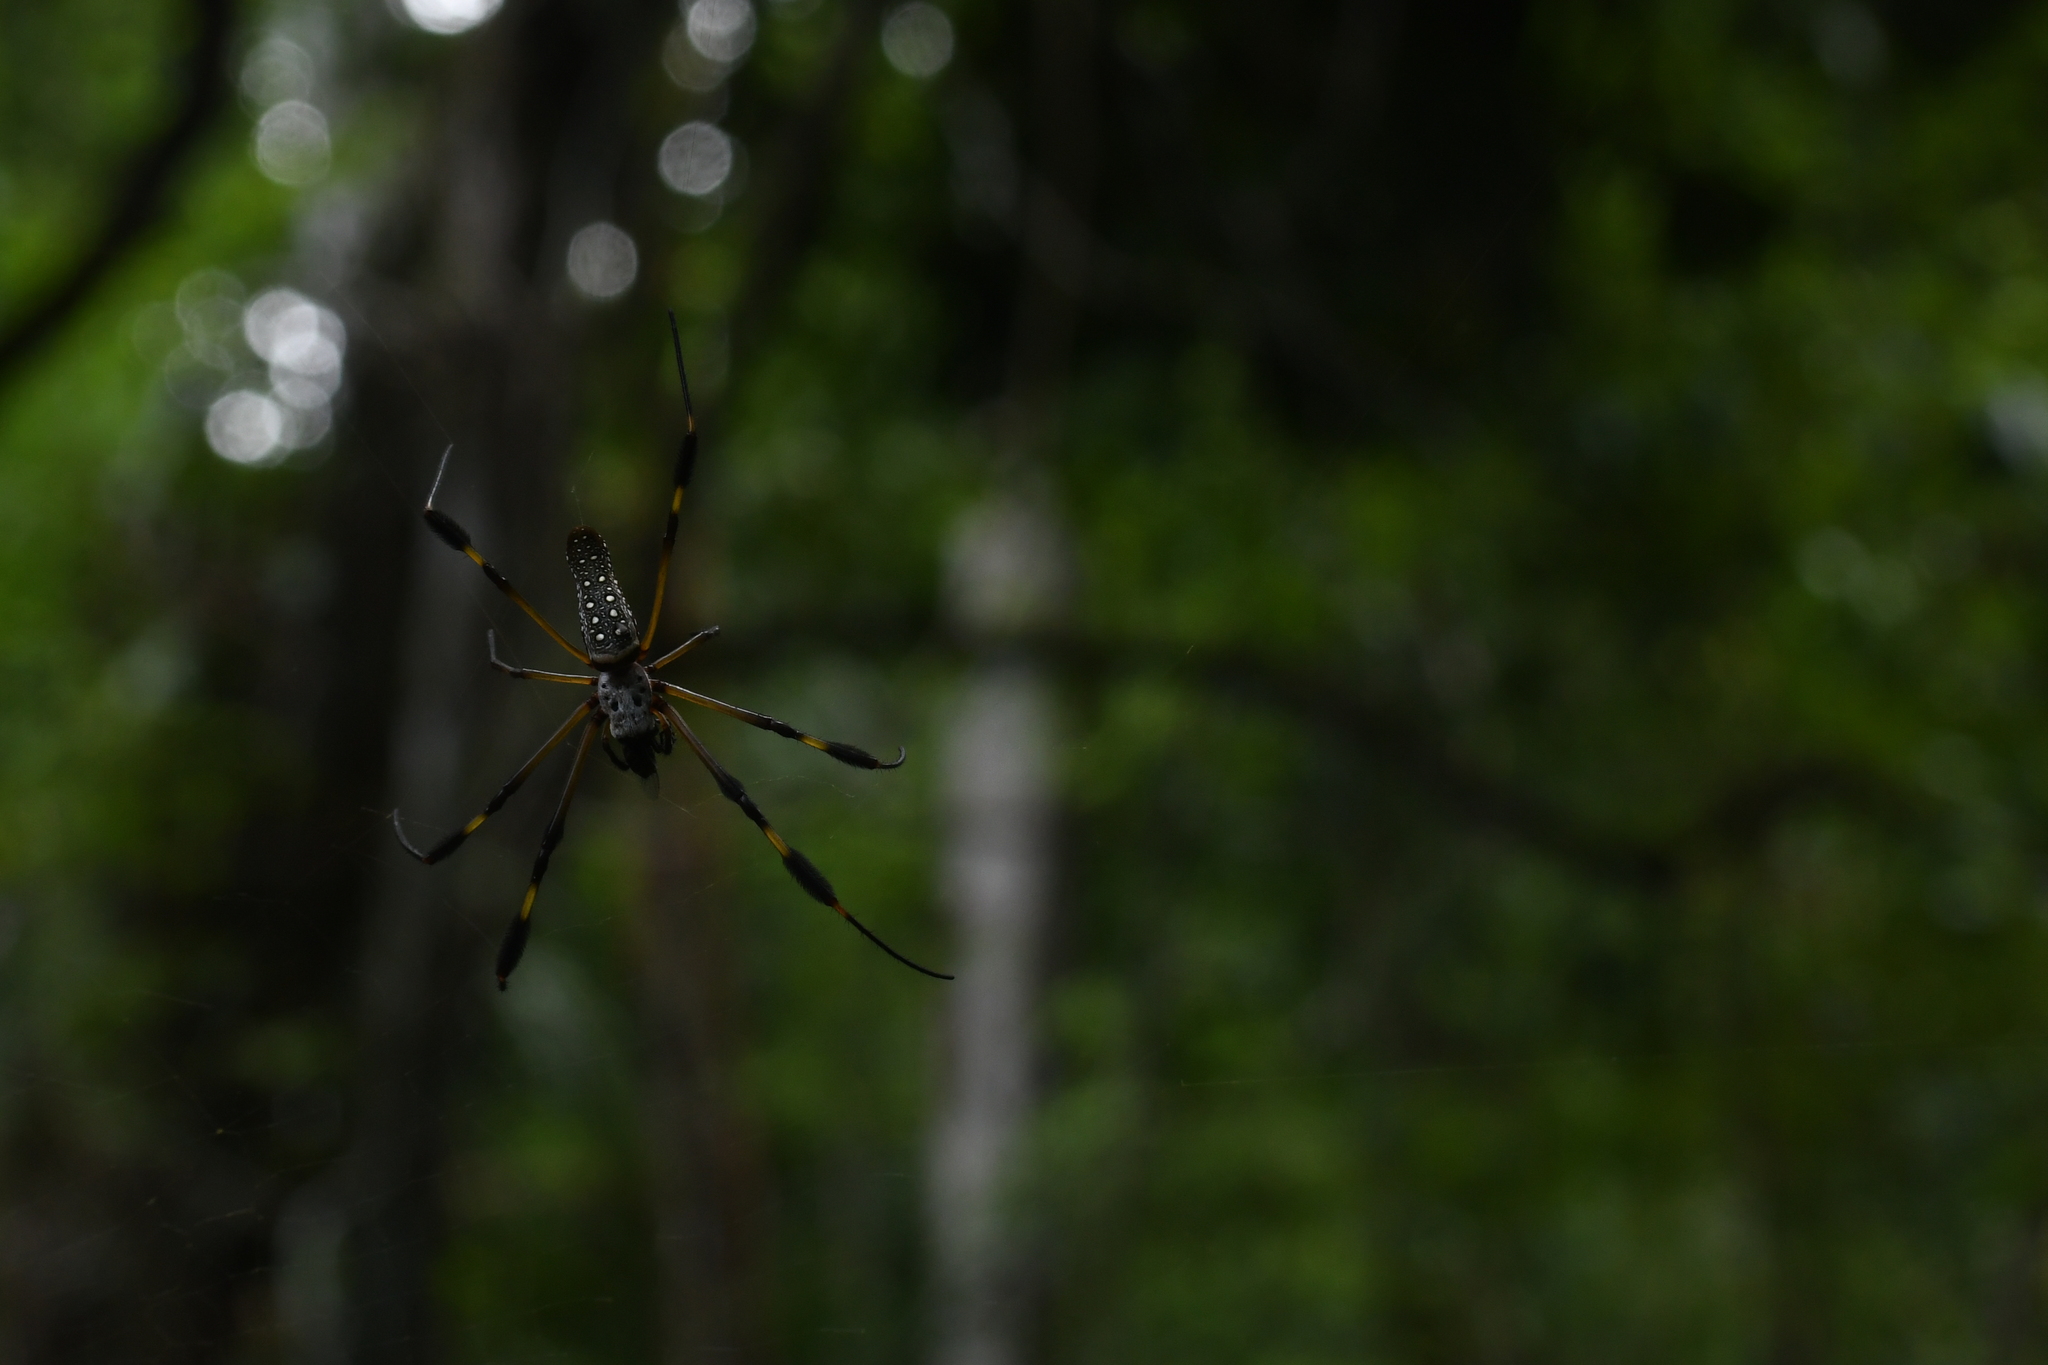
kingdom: Animalia
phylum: Arthropoda
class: Arachnida
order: Araneae
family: Araneidae
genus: Trichonephila
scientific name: Trichonephila clavipes
